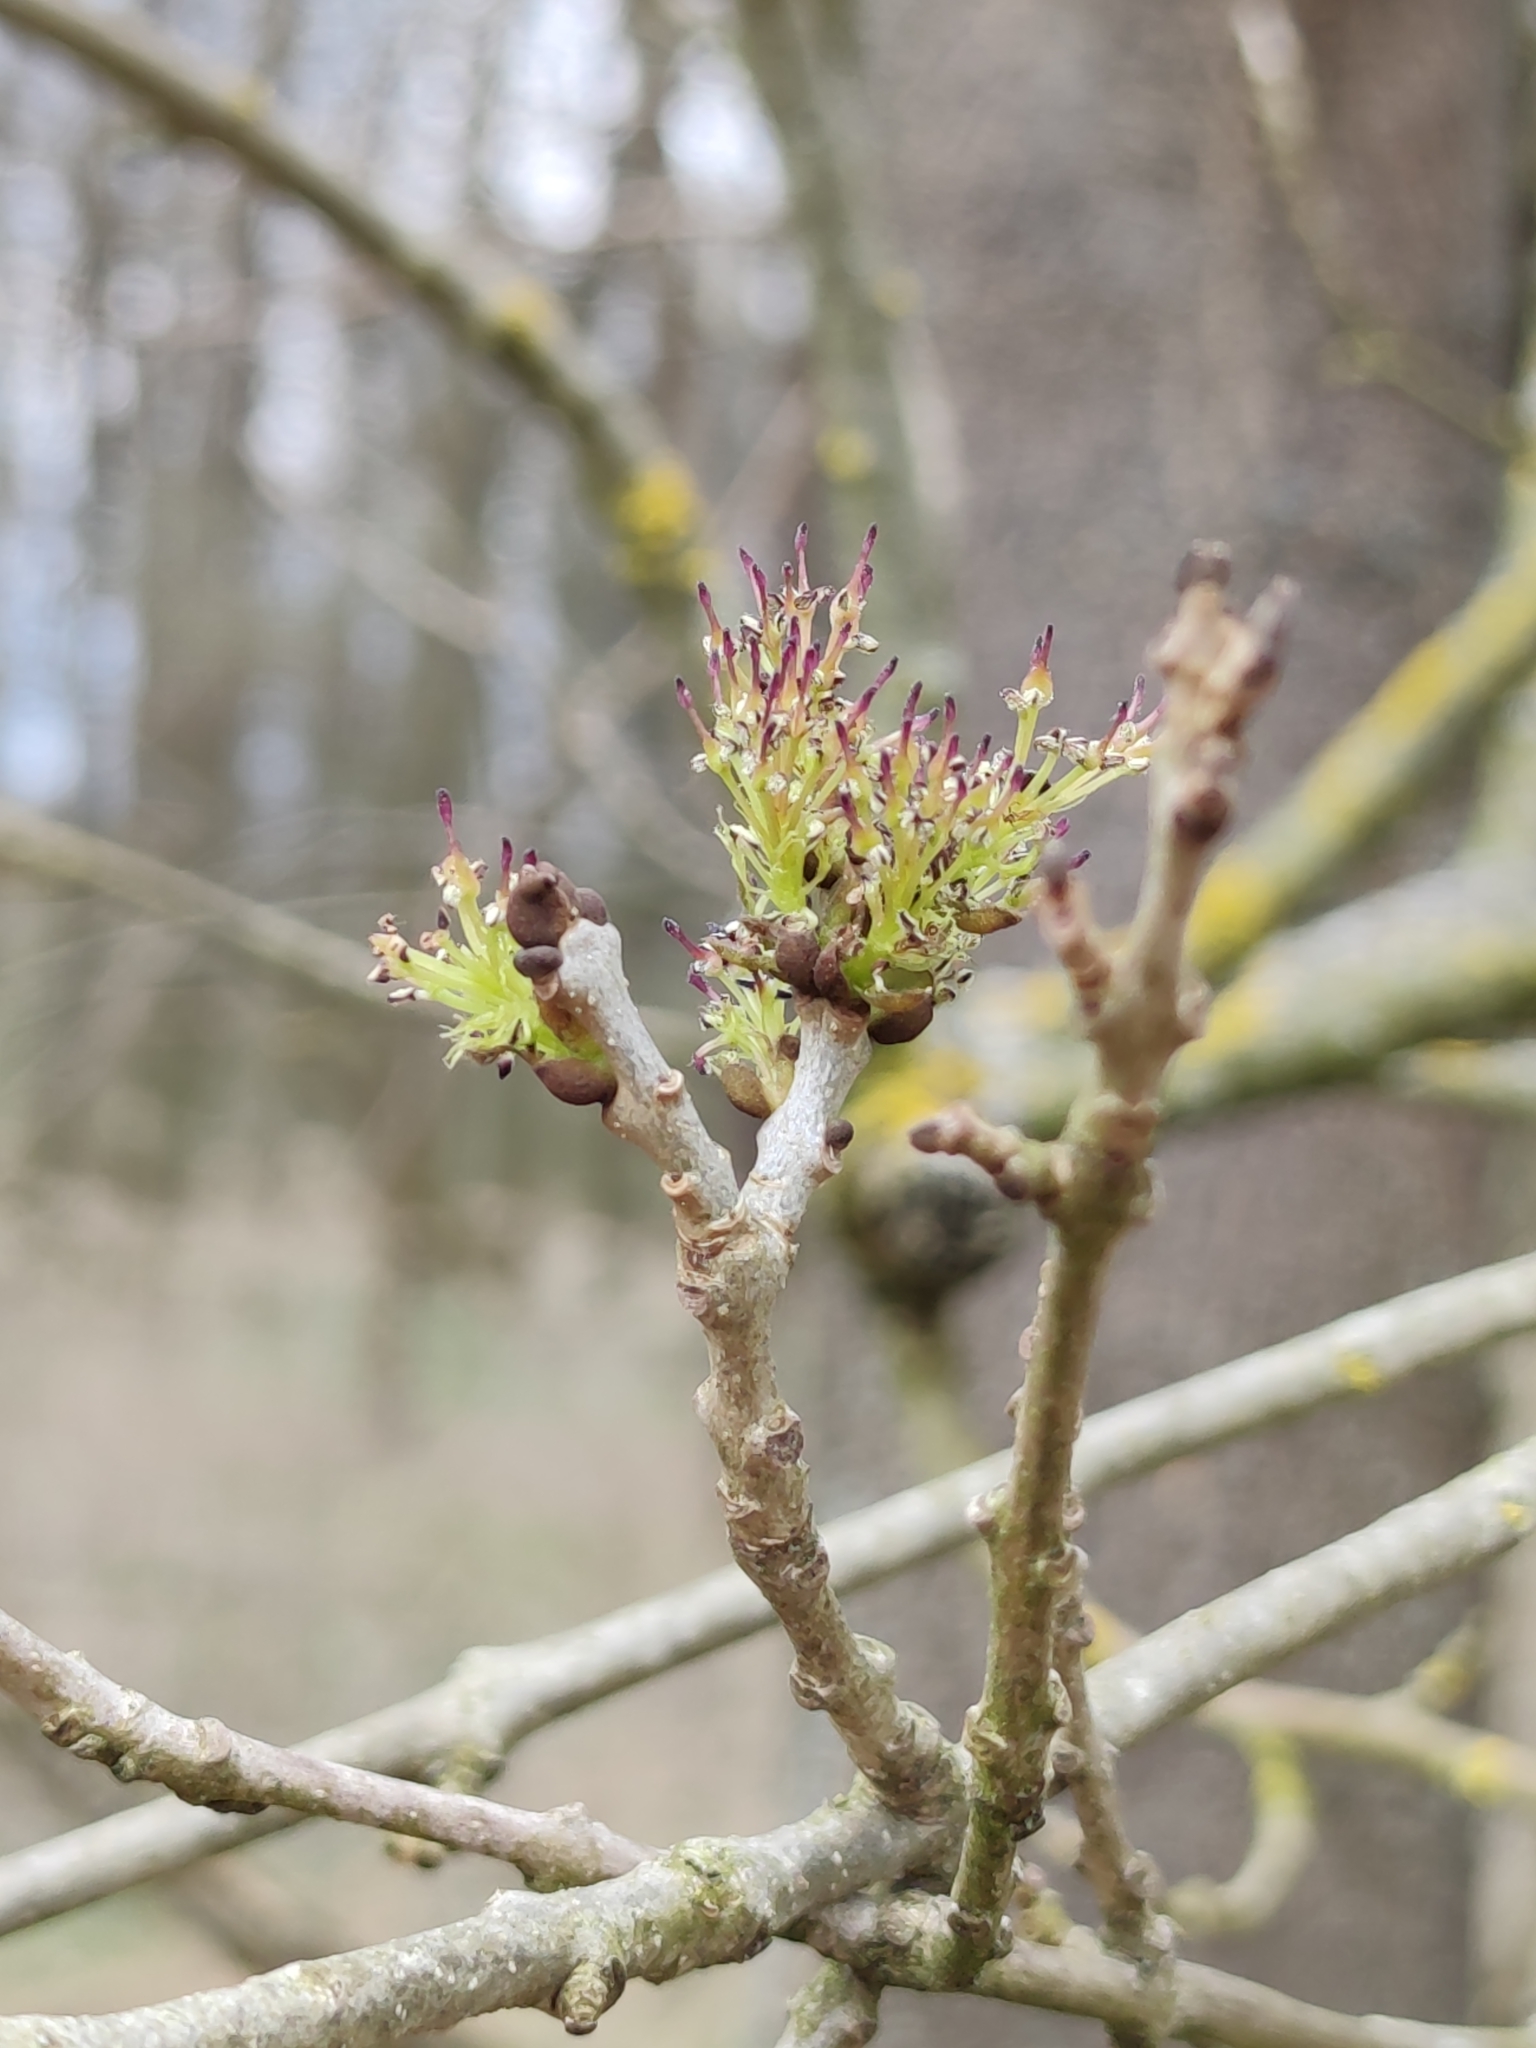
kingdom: Plantae
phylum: Tracheophyta
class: Magnoliopsida
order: Lamiales
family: Oleaceae
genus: Fraxinus
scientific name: Fraxinus angustifolia
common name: Narrow-leafed ash
